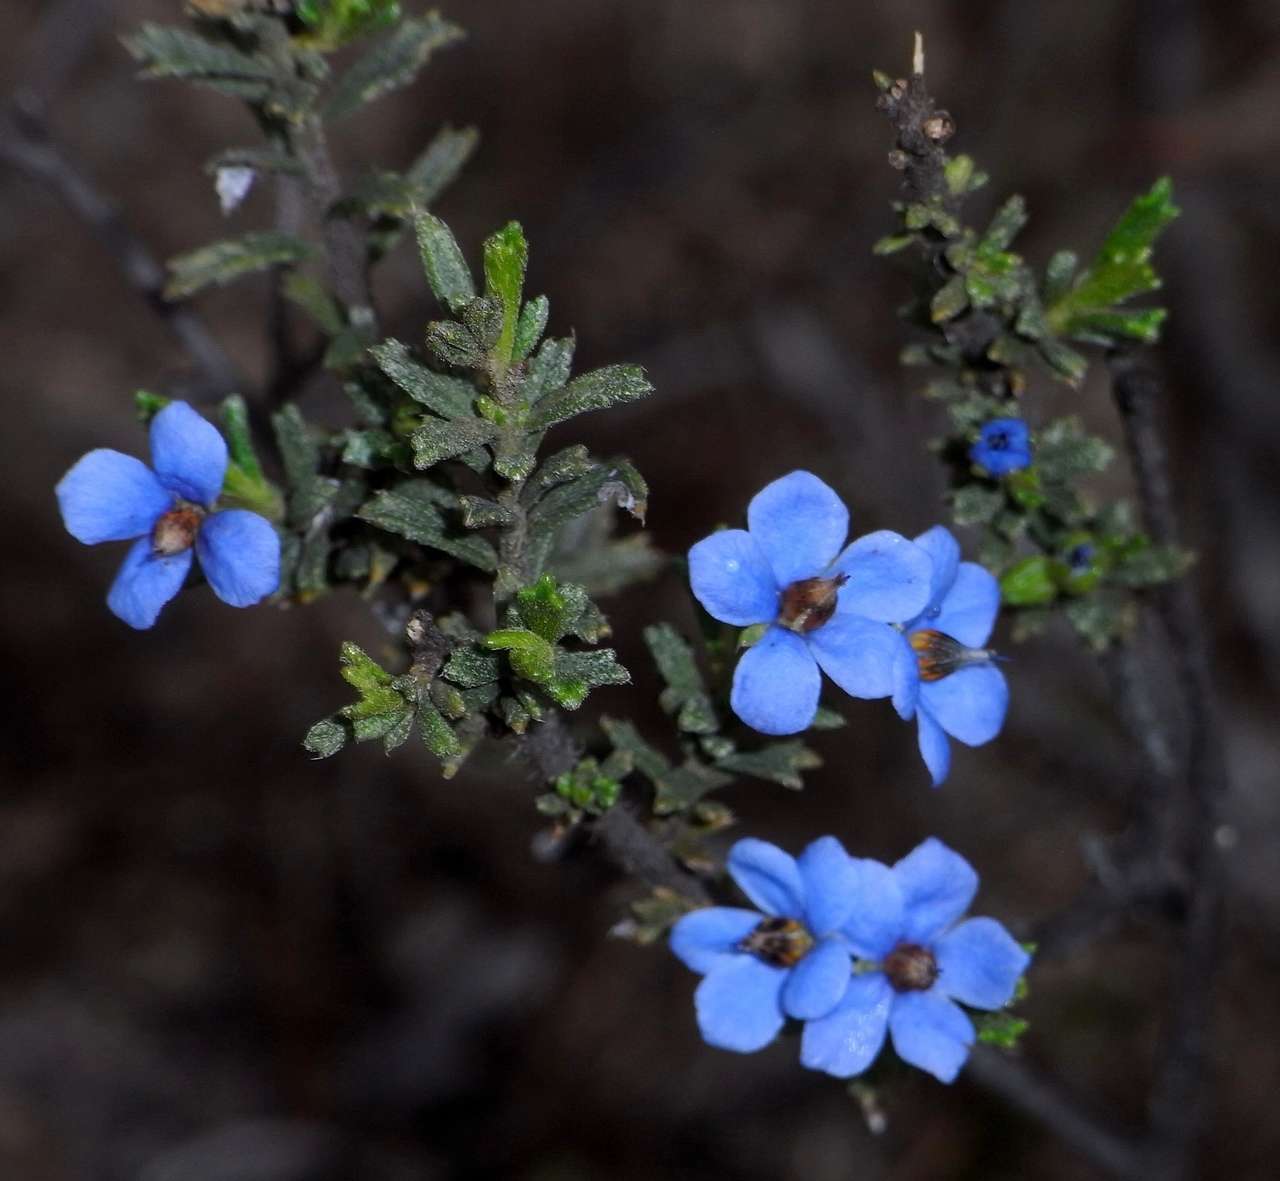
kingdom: Plantae
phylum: Tracheophyta
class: Magnoliopsida
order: Boraginales
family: Ehretiaceae
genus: Halgania
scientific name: Halgania cyanea
